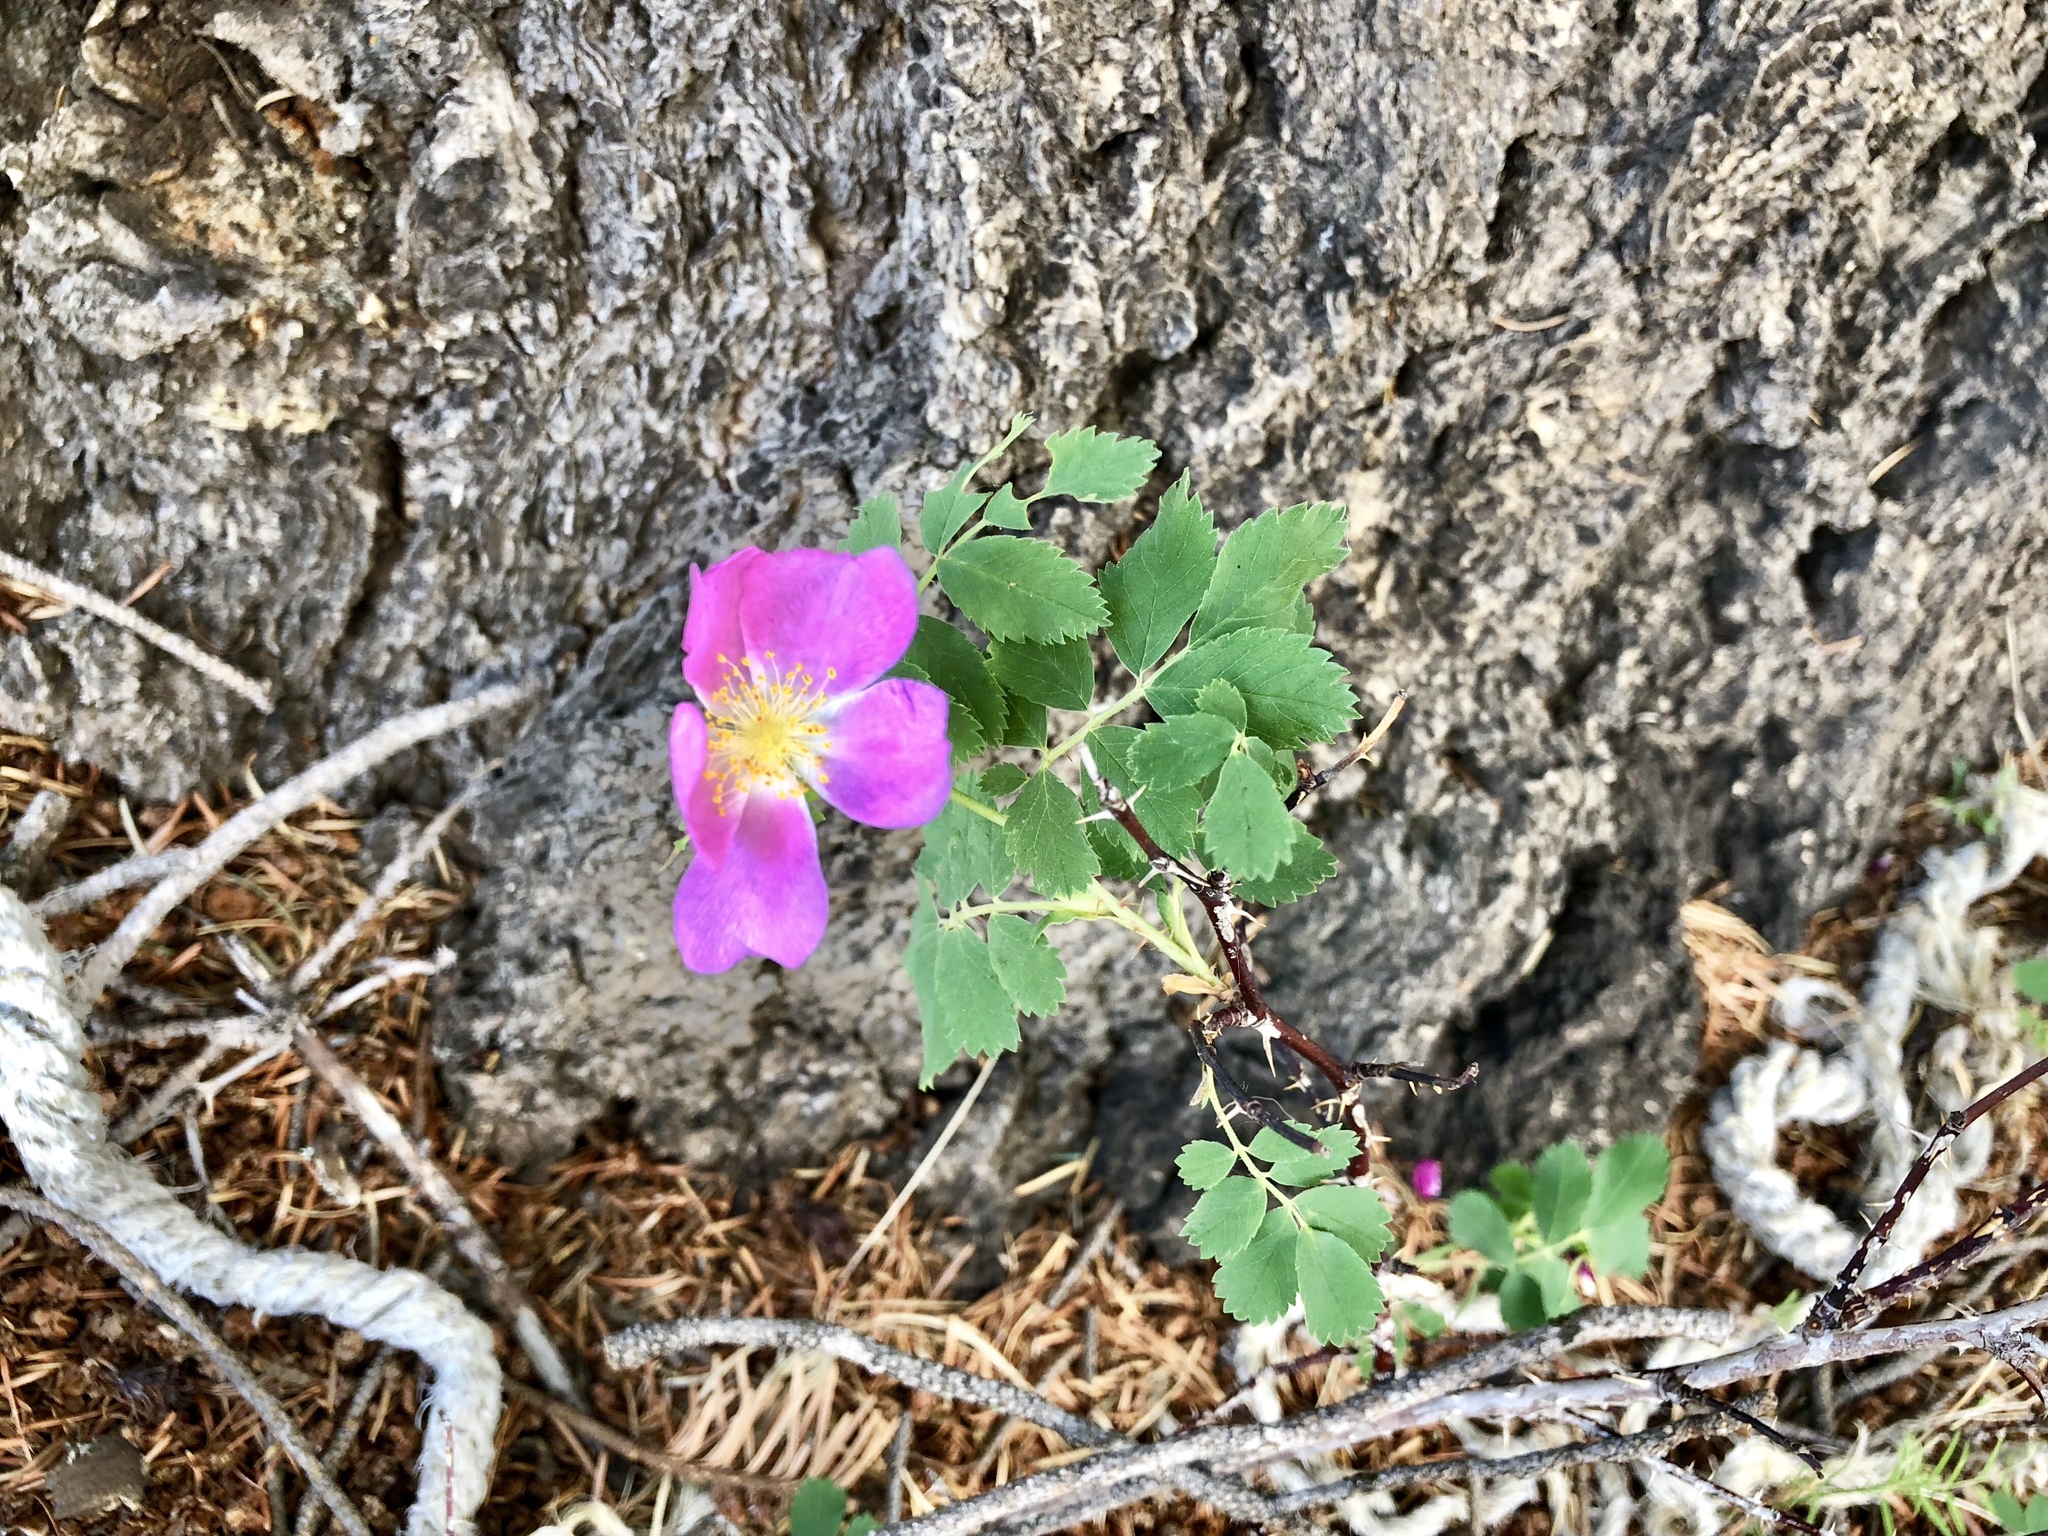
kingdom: Plantae
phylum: Tracheophyta
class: Magnoliopsida
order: Rosales
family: Rosaceae
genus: Rosa
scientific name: Rosa woodsii
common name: Woods's rose
